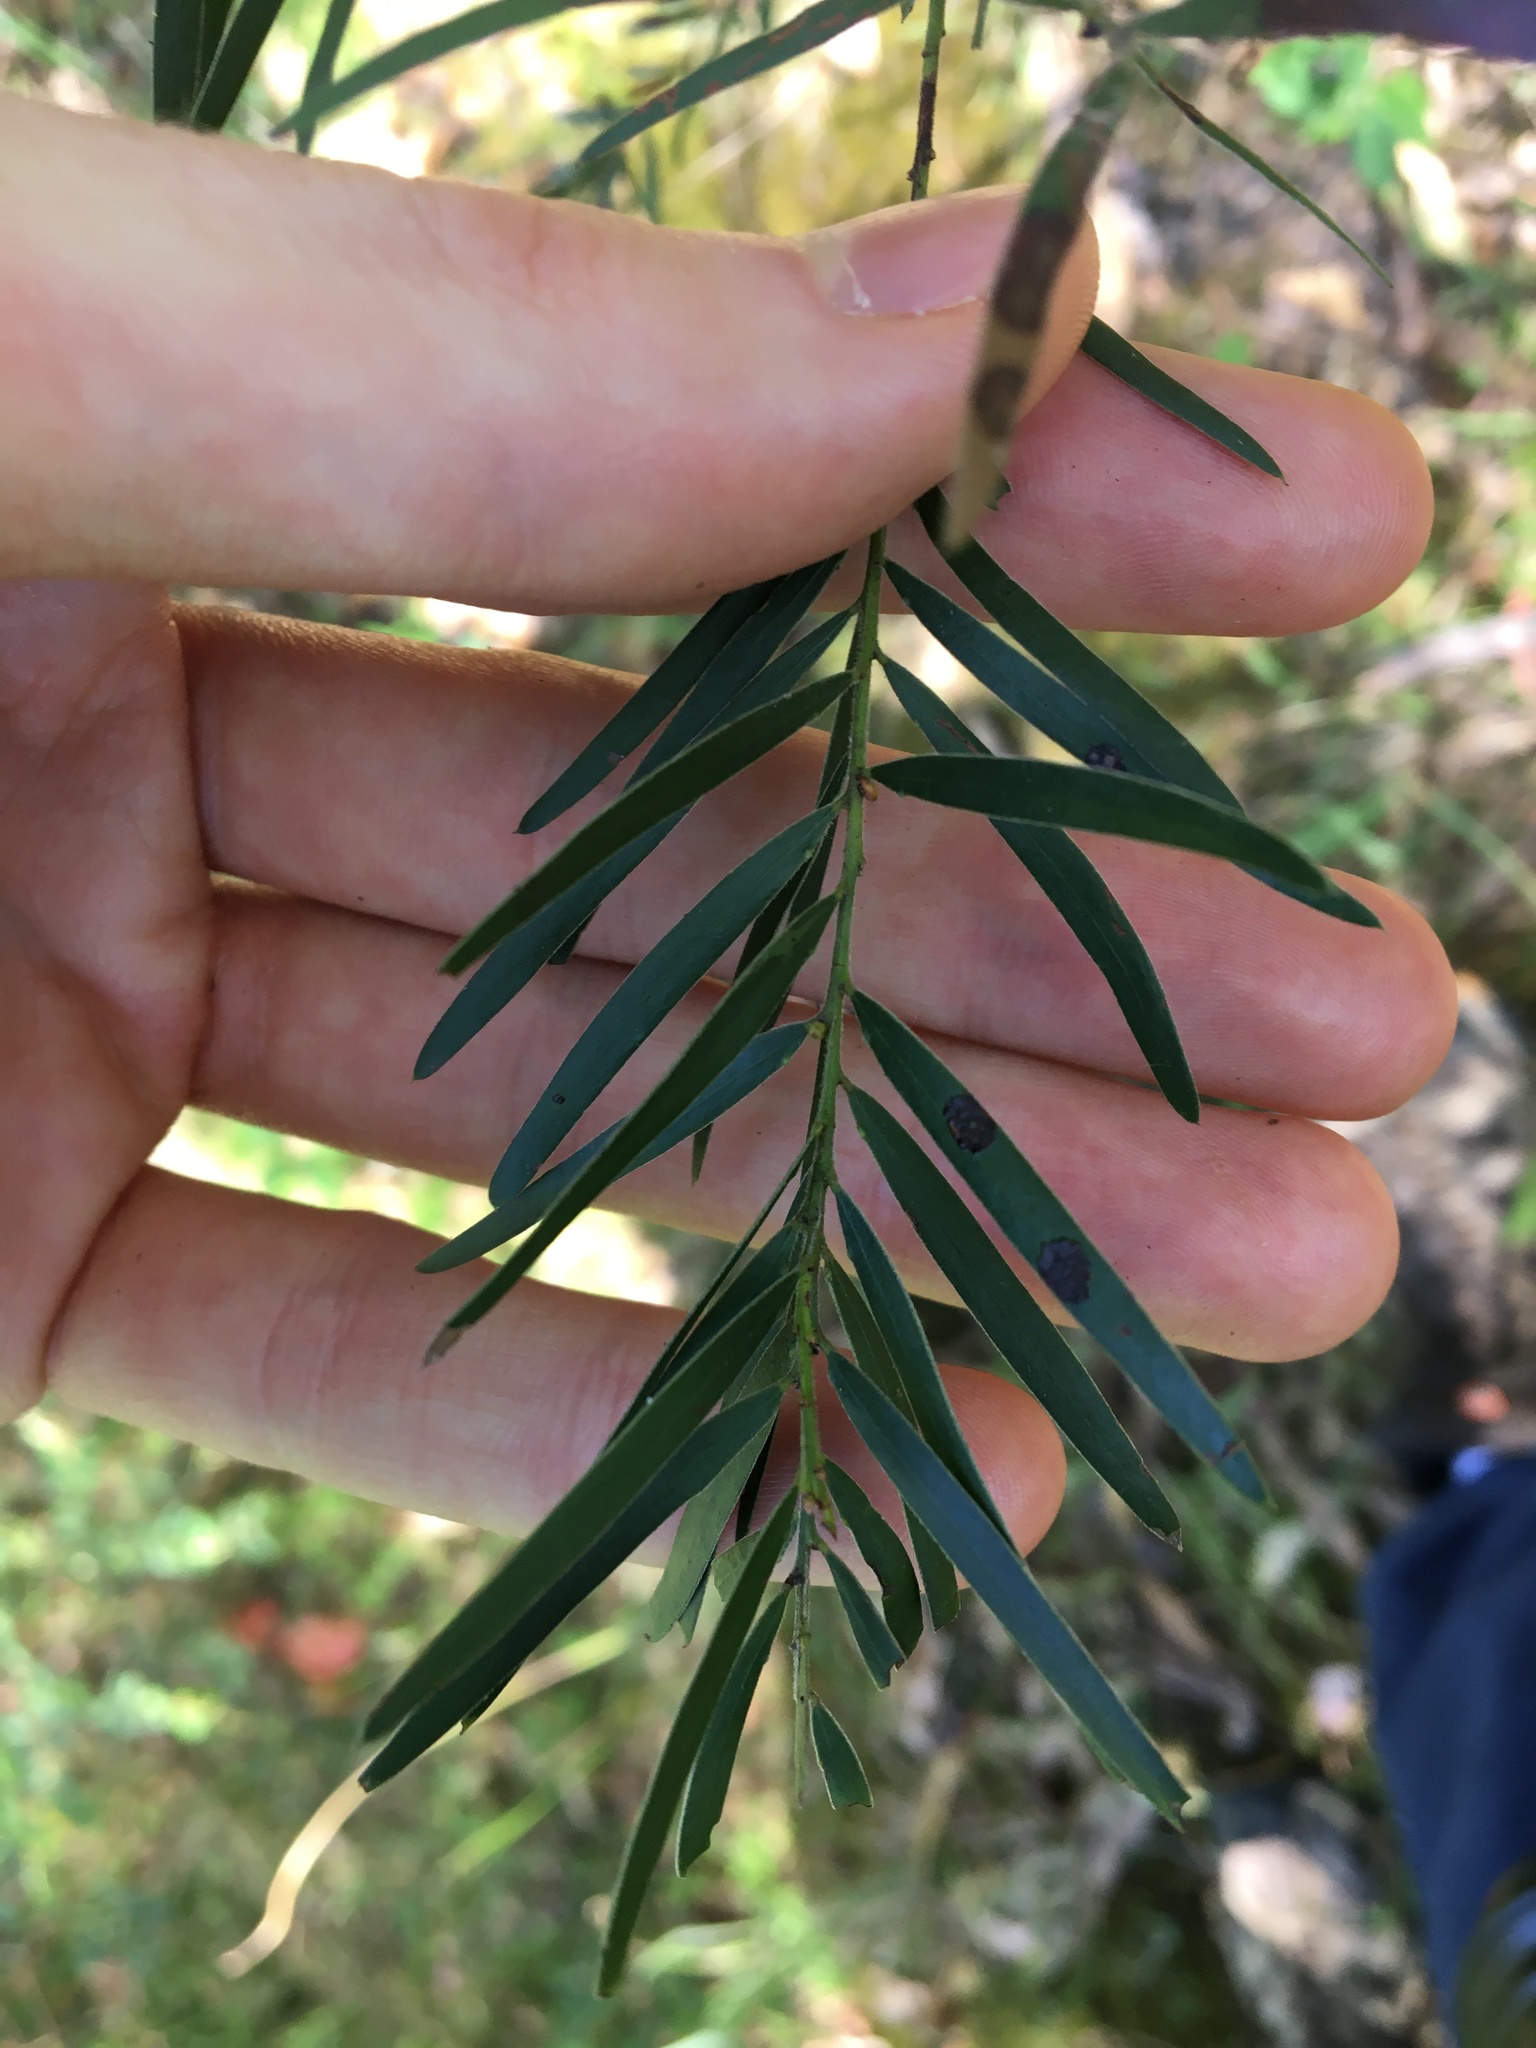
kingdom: Plantae
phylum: Tracheophyta
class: Magnoliopsida
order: Fabales
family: Fabaceae
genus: Acacia
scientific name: Acacia fimbriata
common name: Brisbane golden wattle
